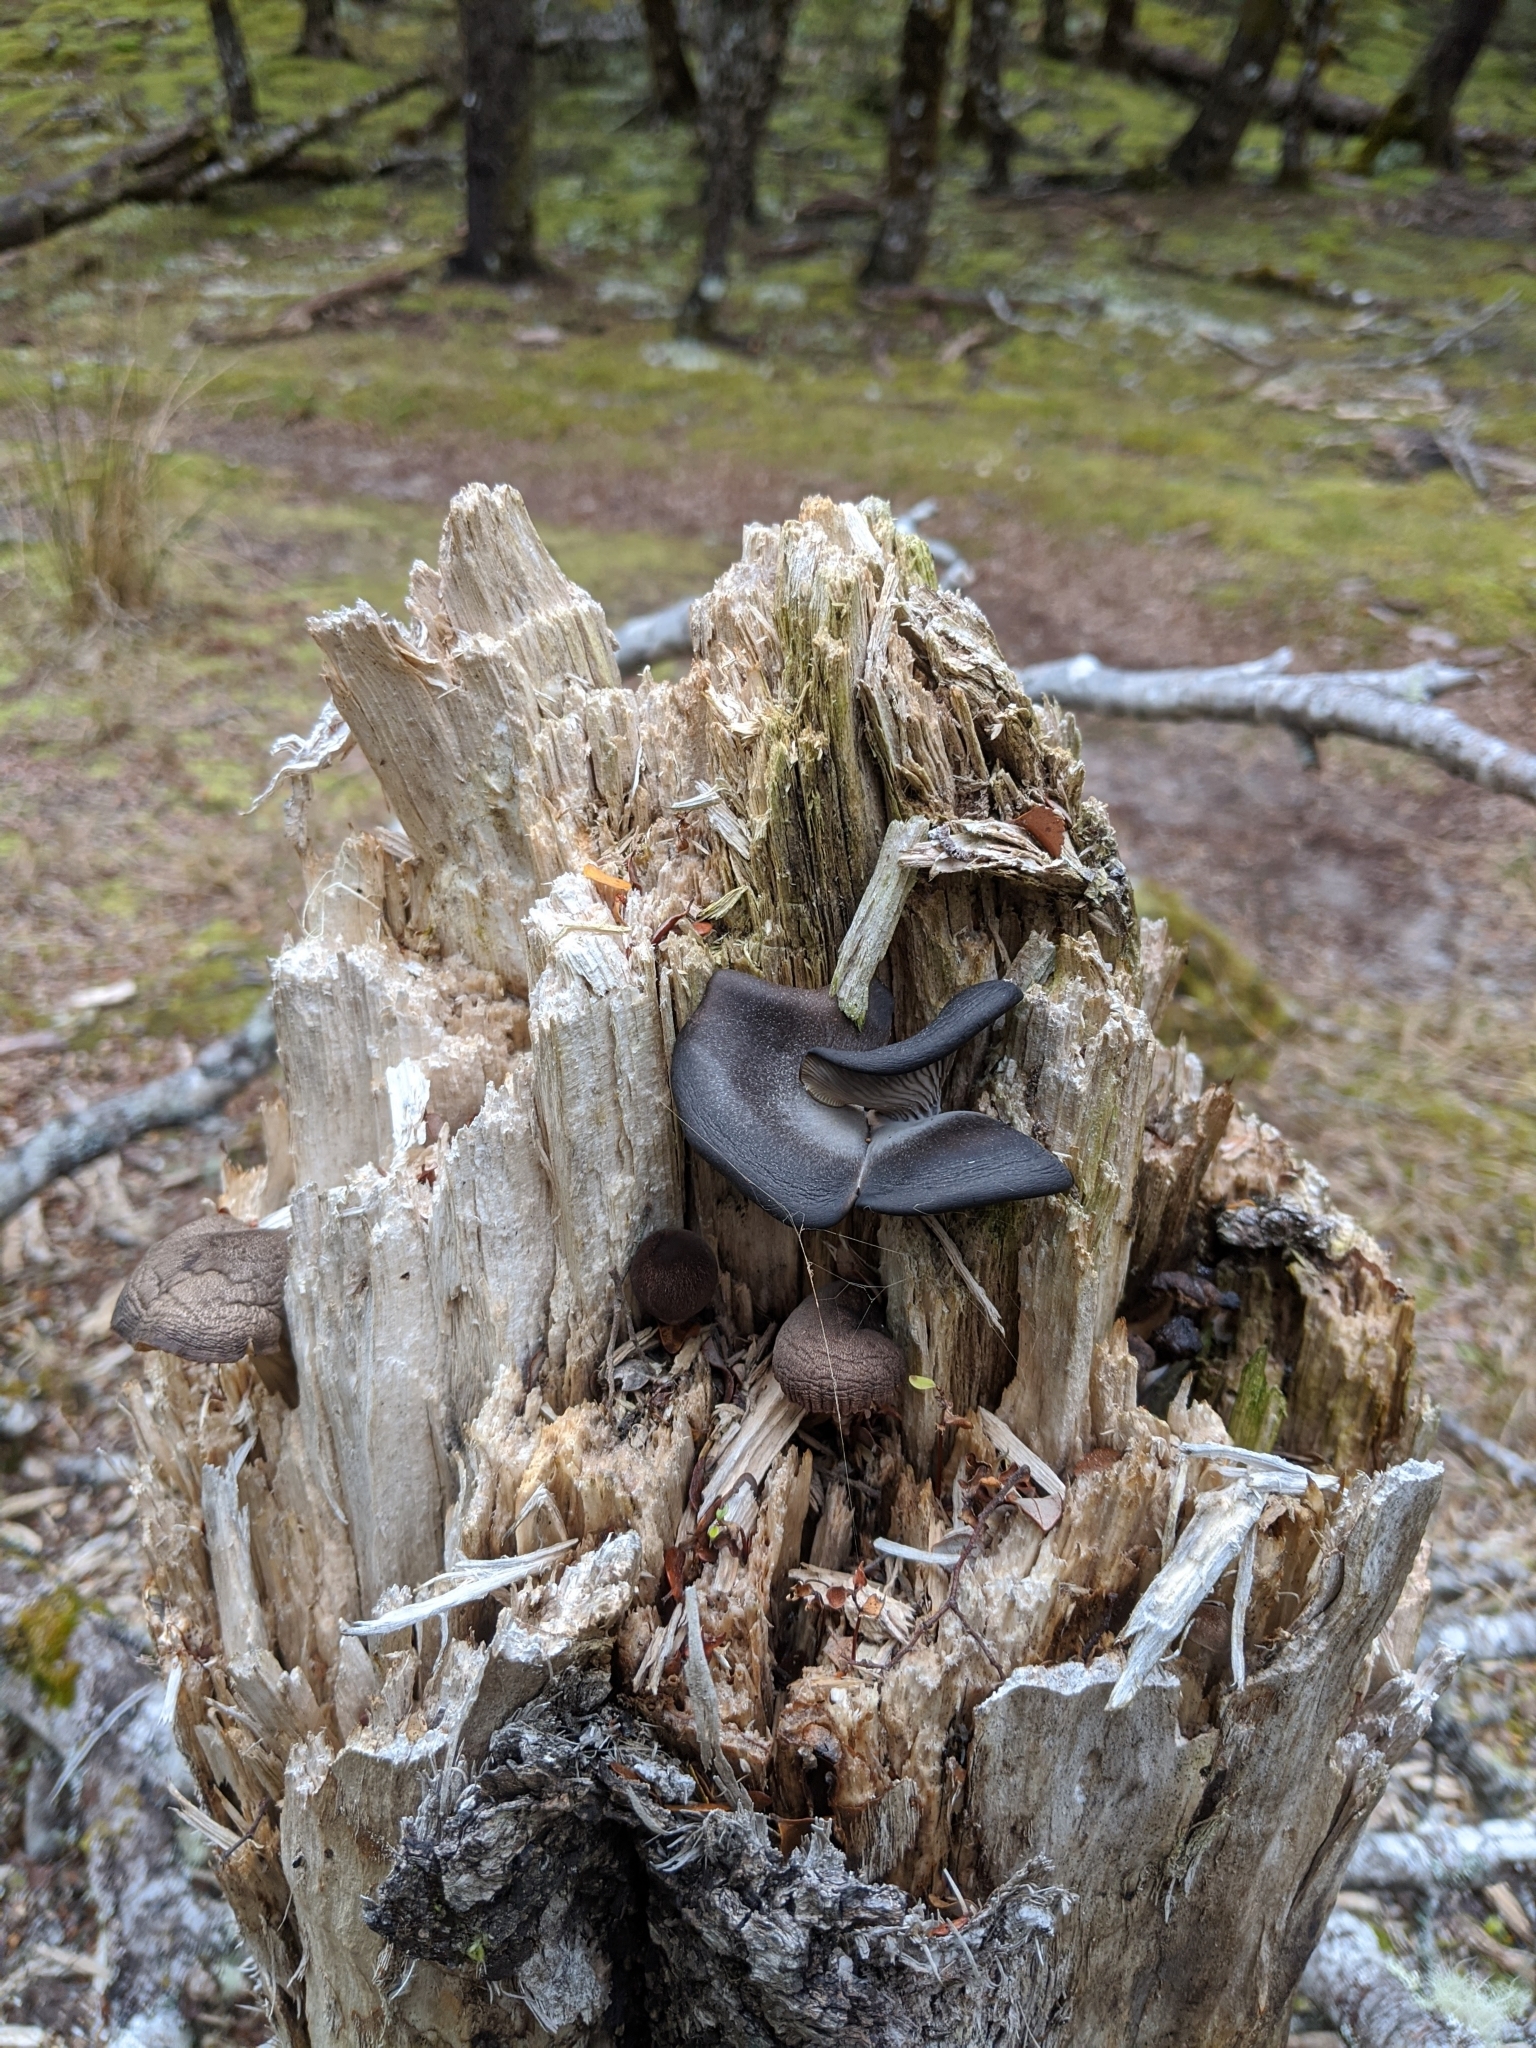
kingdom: Fungi
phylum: Basidiomycota
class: Agaricomycetes
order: Agaricales
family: Pleurotaceae
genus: Pleurotus
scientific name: Pleurotus purpureo-olivaceus
